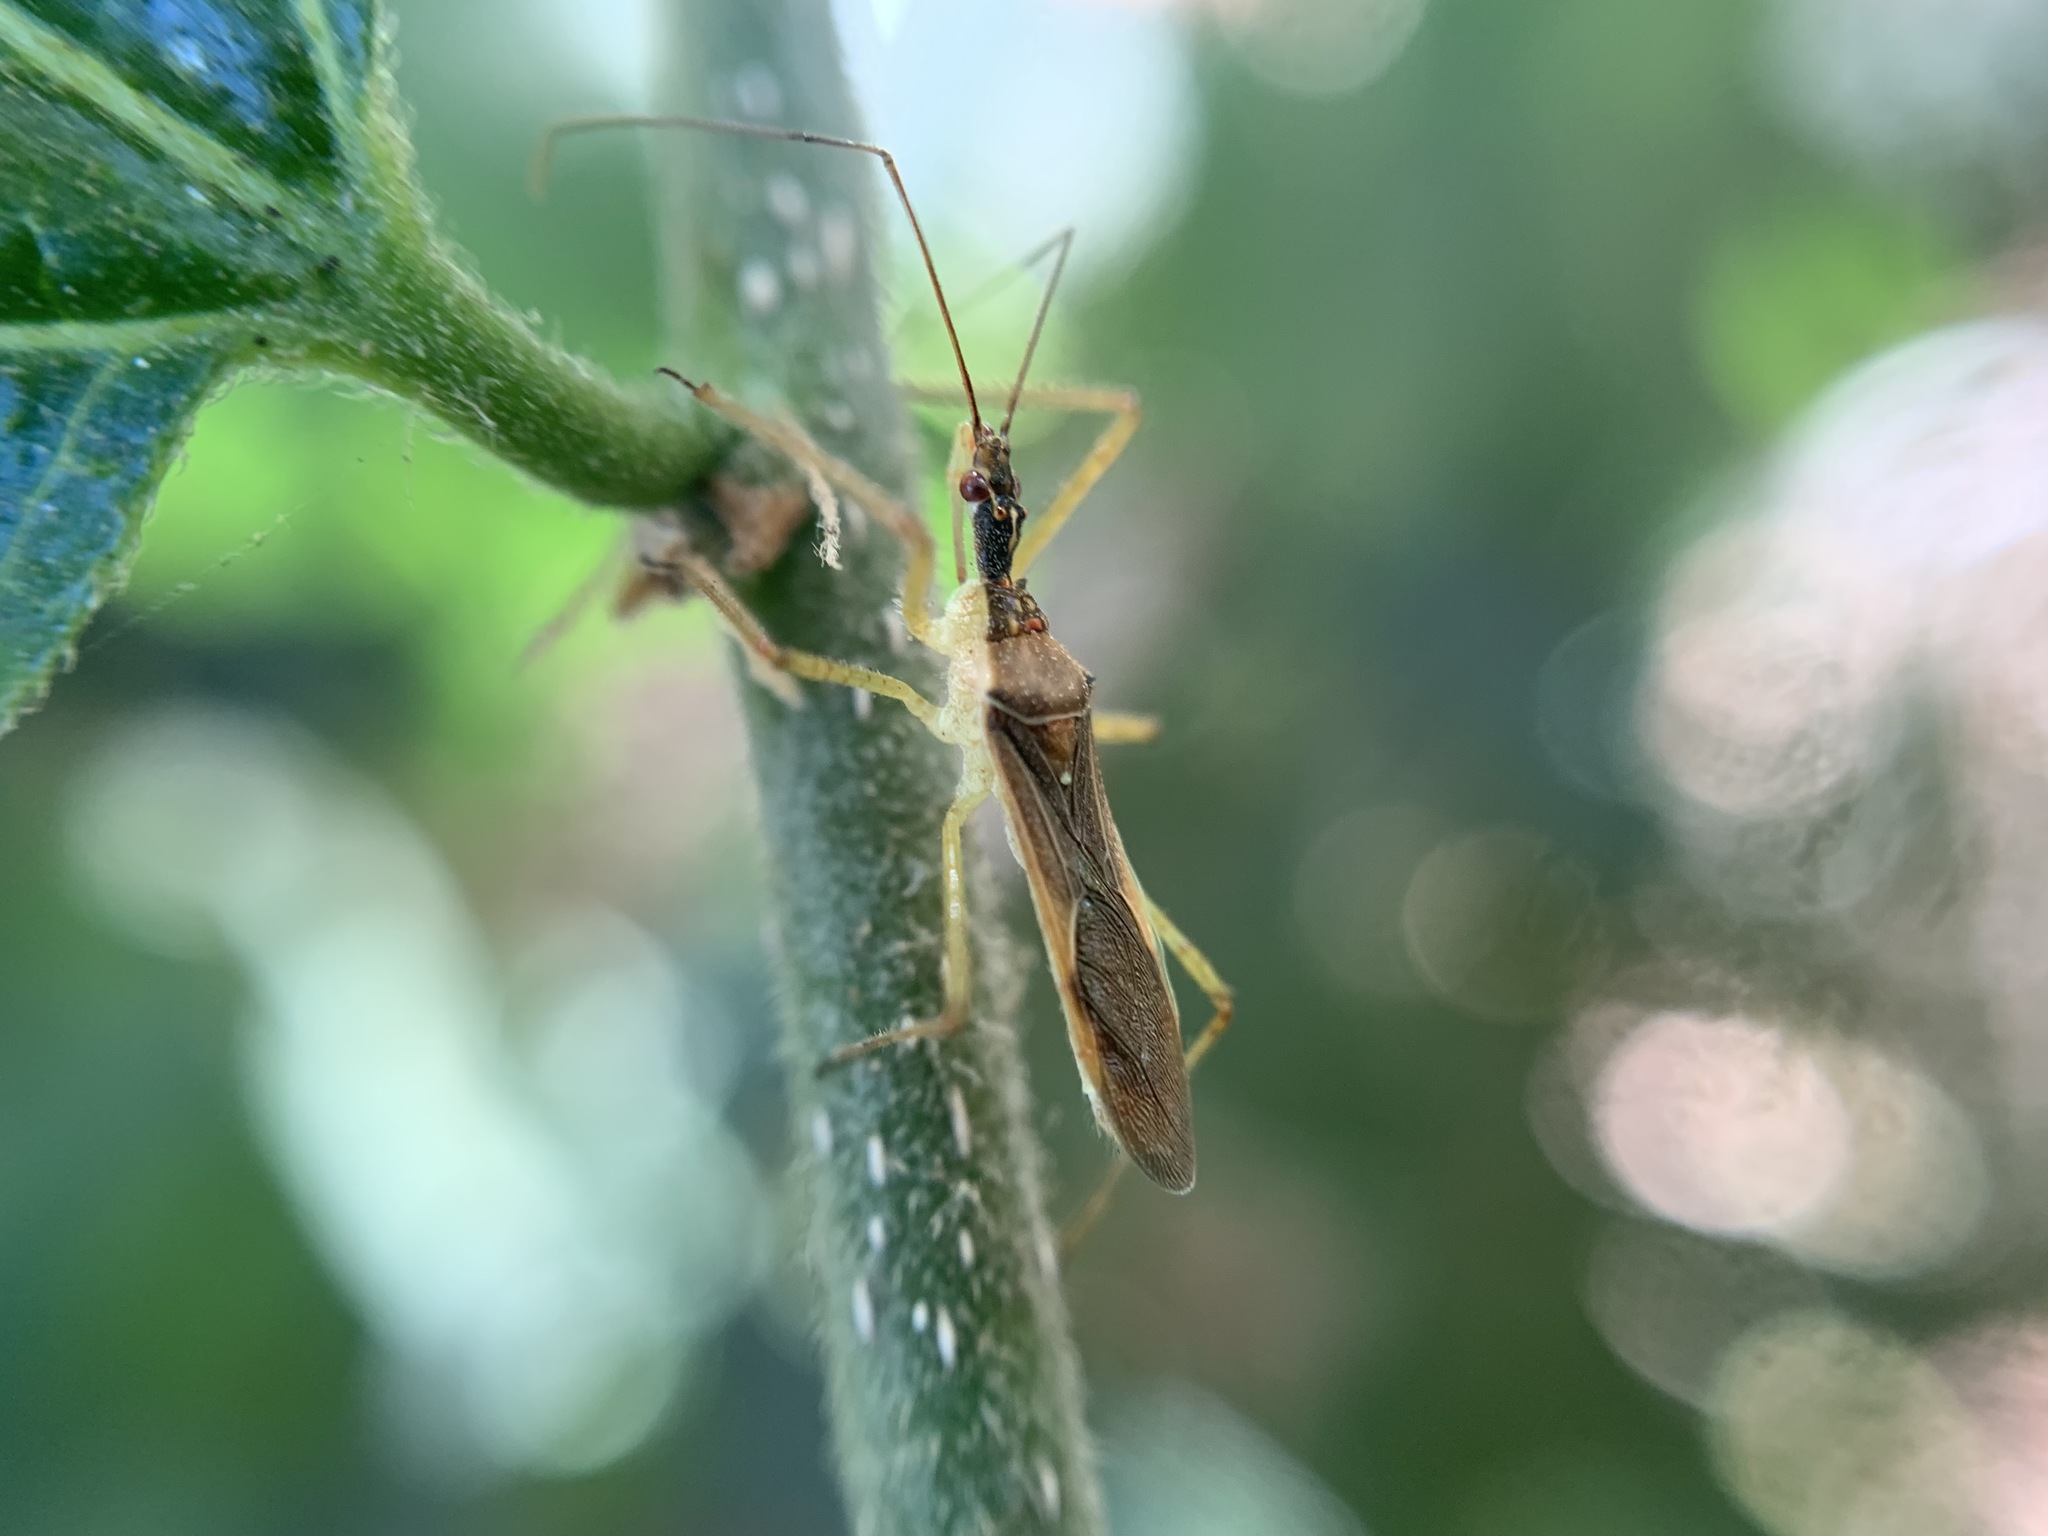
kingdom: Animalia
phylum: Arthropoda
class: Insecta
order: Hemiptera
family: Reduviidae
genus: Zelus
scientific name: Zelus renardii
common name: Assassin bug
